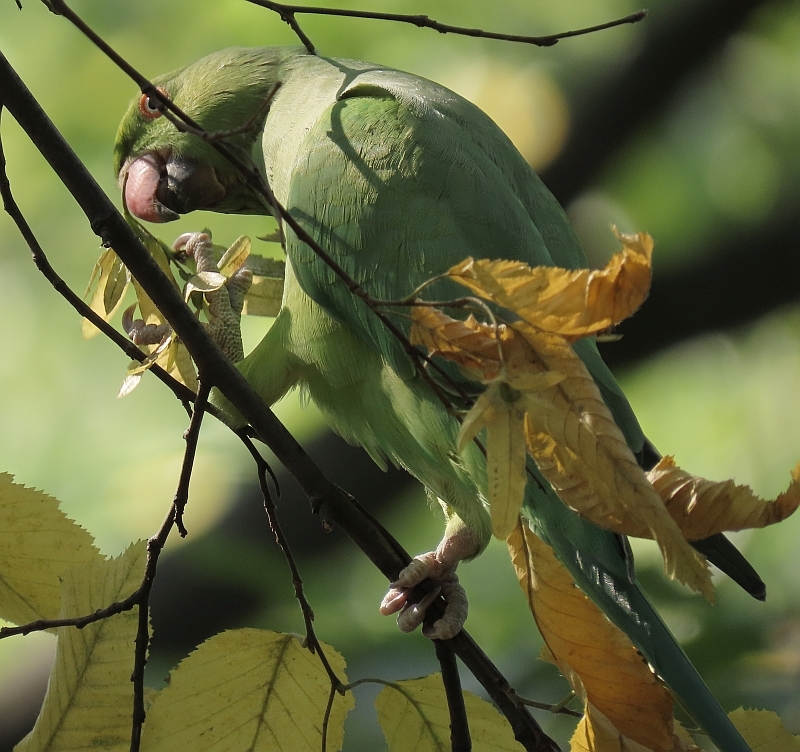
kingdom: Animalia
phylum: Chordata
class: Aves
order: Psittaciformes
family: Psittacidae
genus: Psittacula
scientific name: Psittacula krameri
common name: Rose-ringed parakeet
